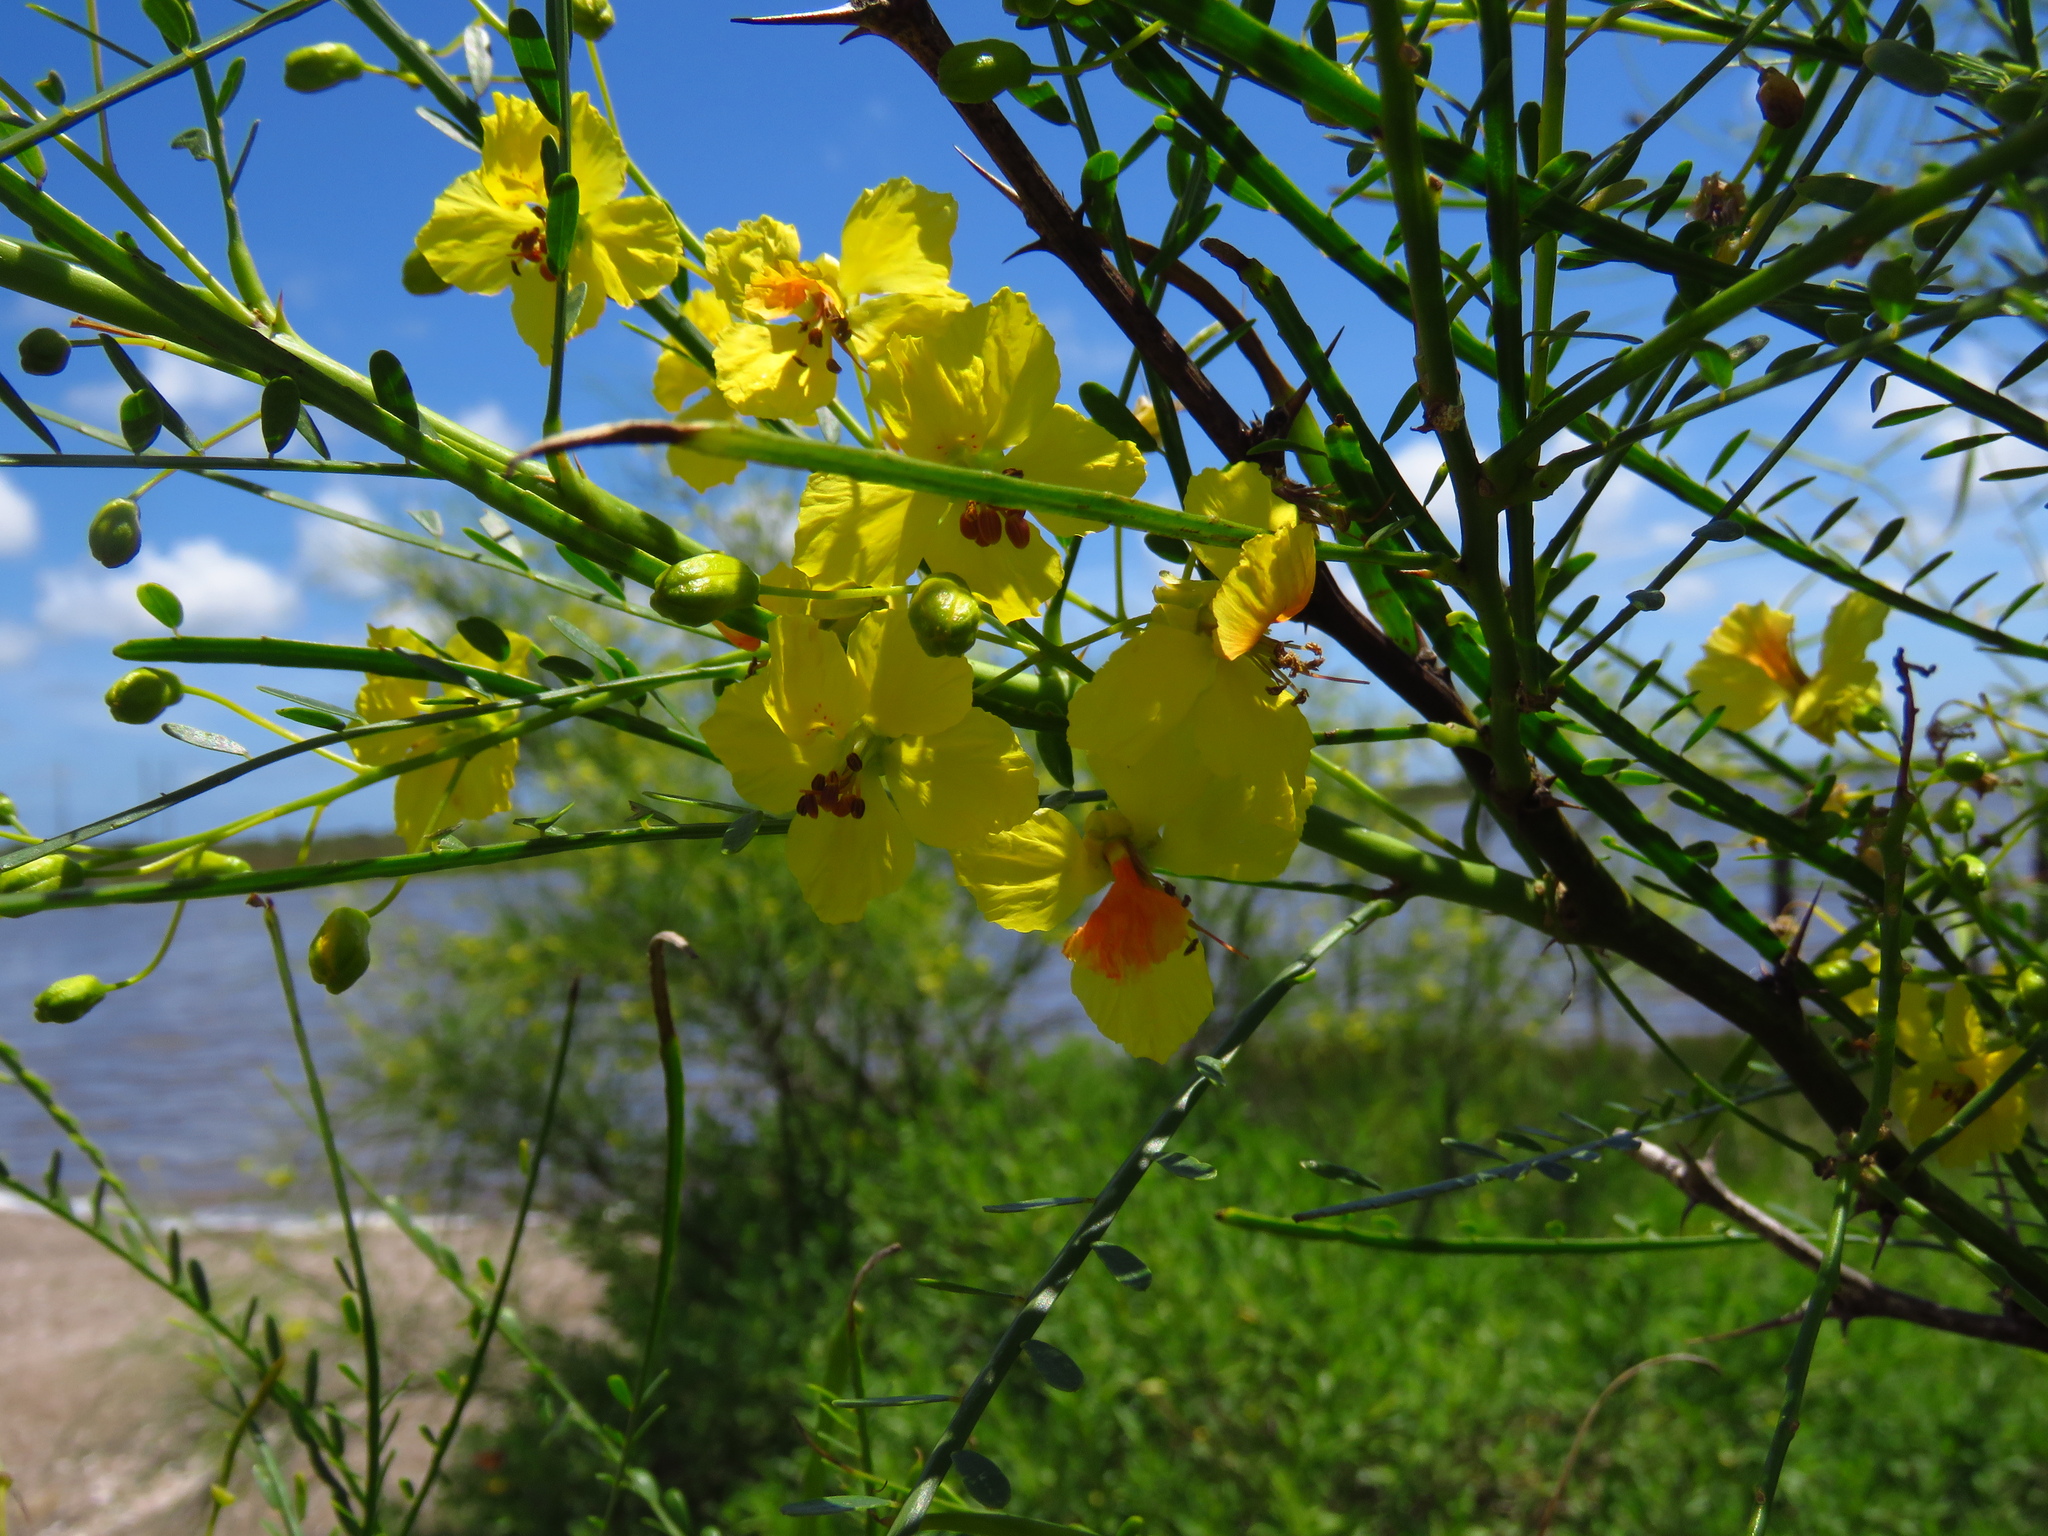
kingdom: Plantae
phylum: Tracheophyta
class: Magnoliopsida
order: Fabales
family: Fabaceae
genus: Parkinsonia
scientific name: Parkinsonia aculeata
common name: Jerusalem thorn
